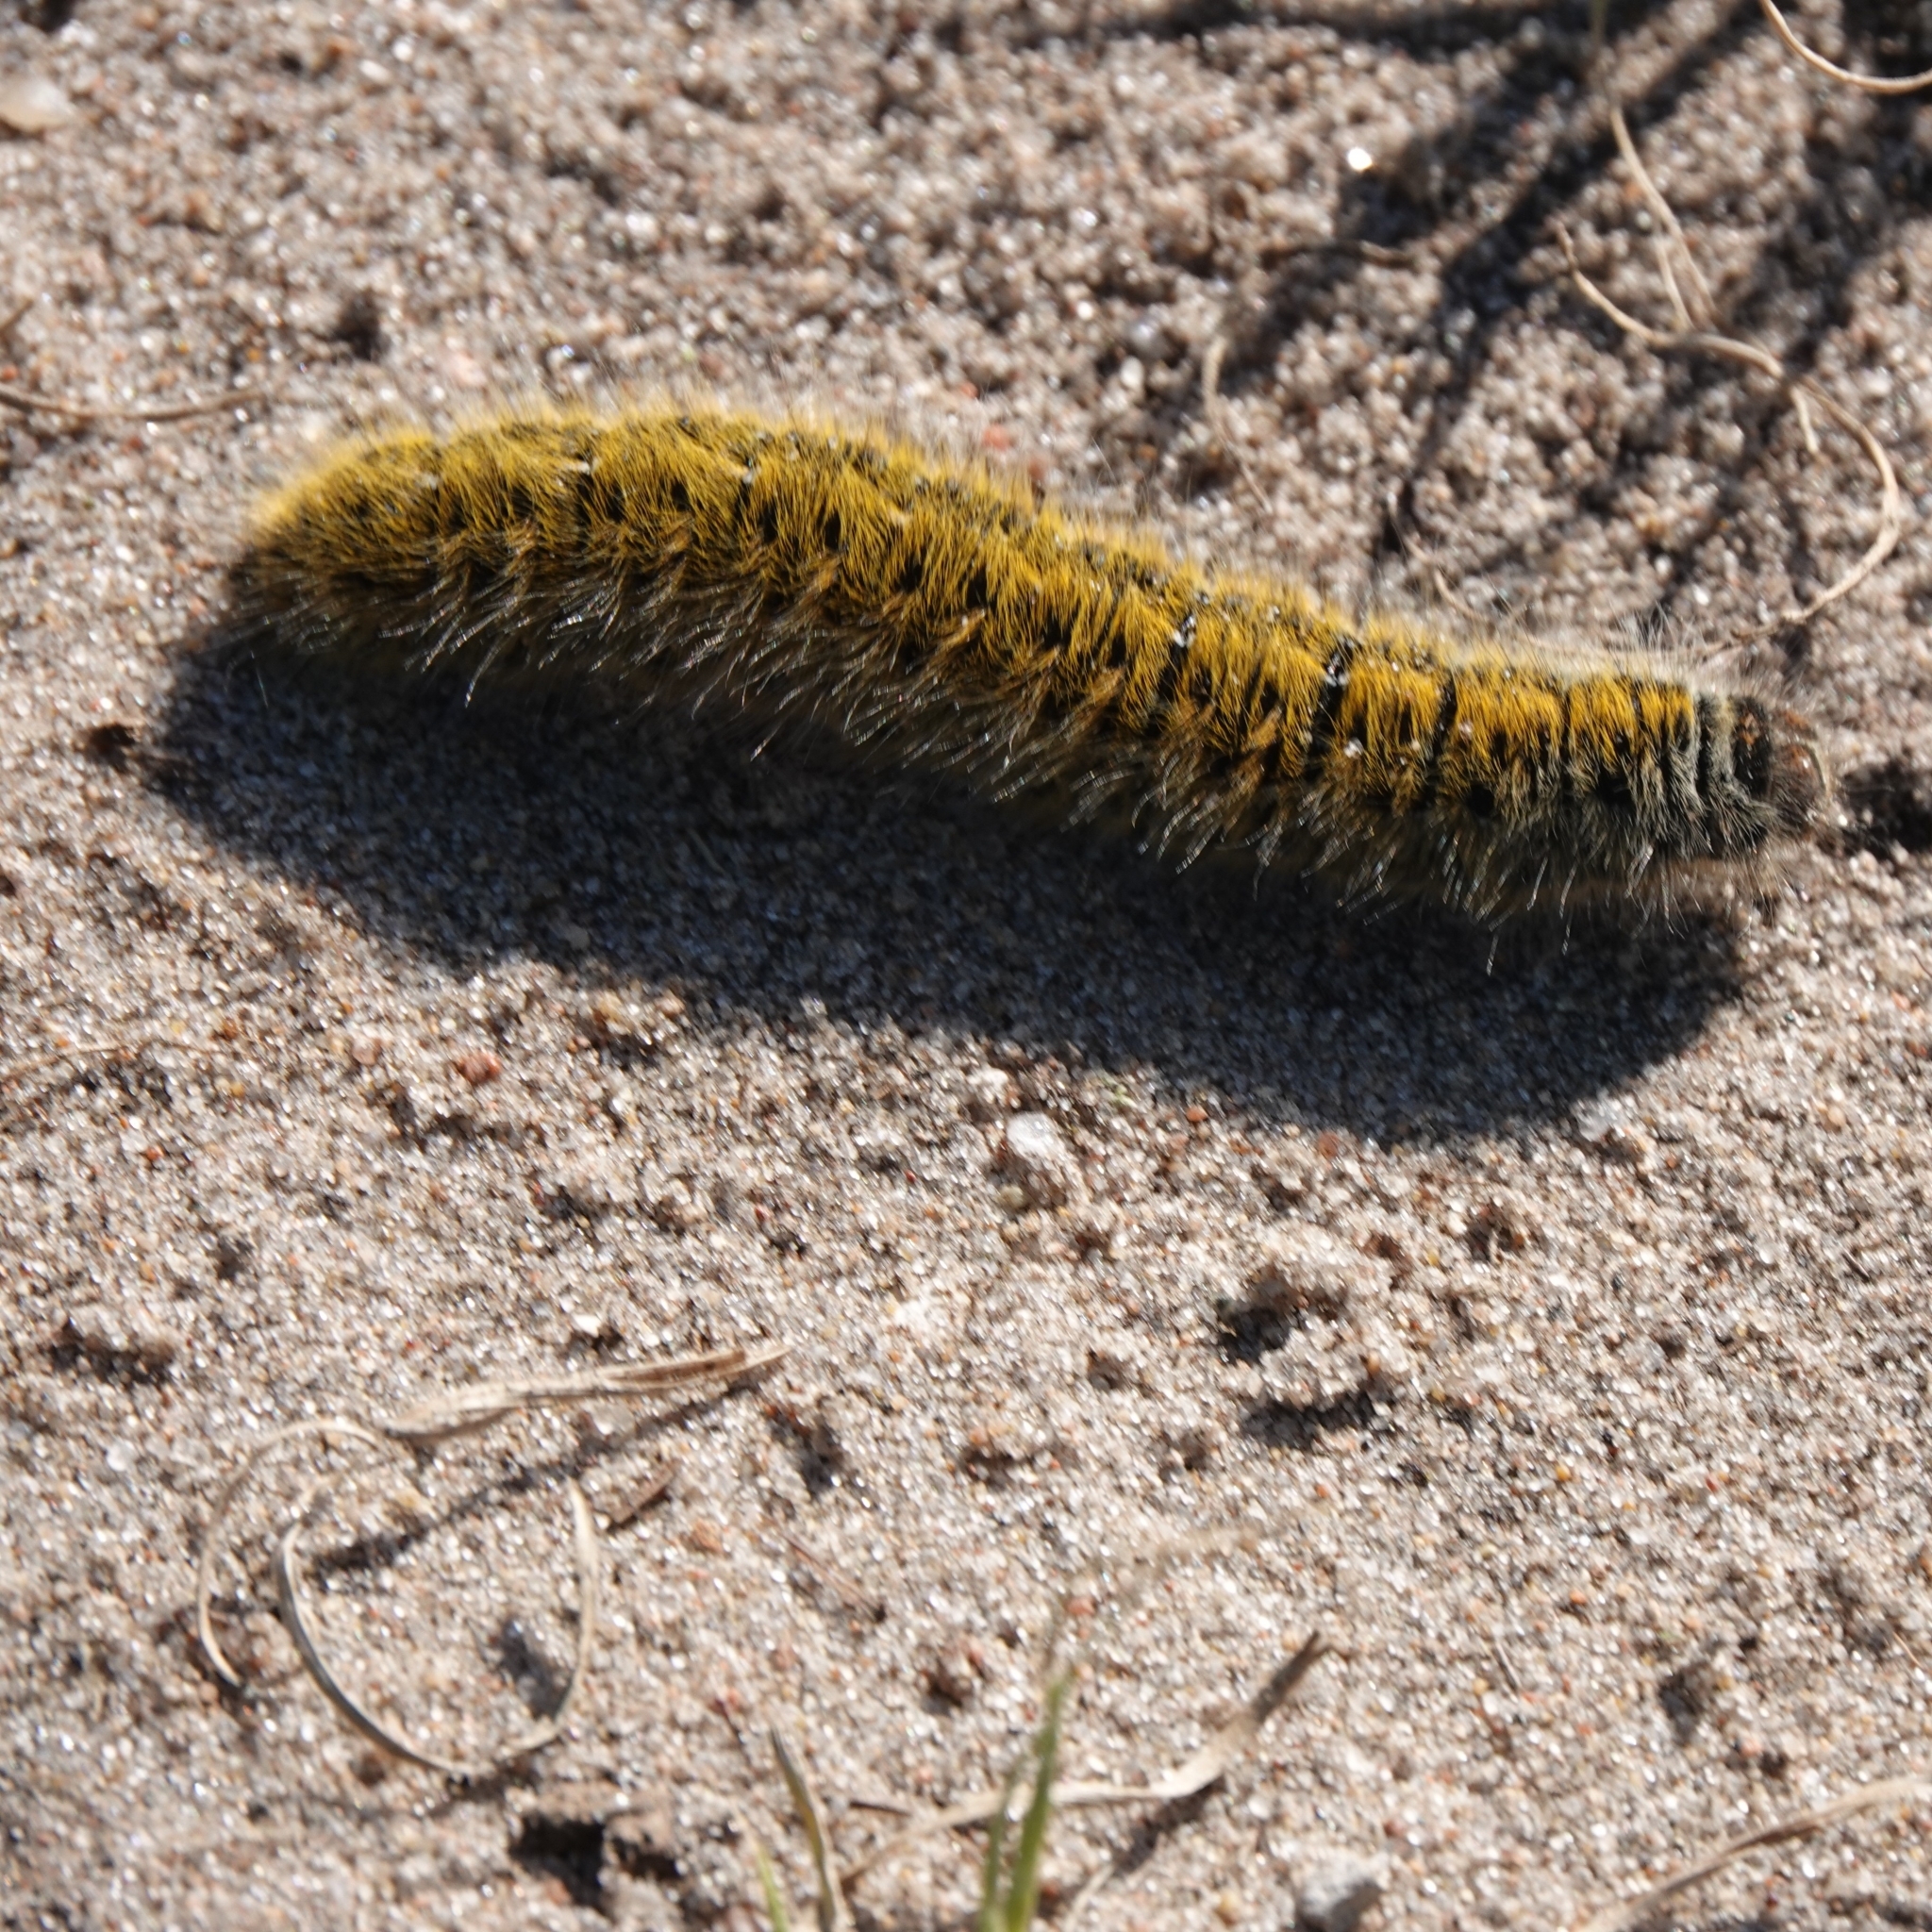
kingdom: Animalia
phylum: Arthropoda
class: Insecta
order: Lepidoptera
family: Lasiocampidae
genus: Lasiocampa
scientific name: Lasiocampa trifolii
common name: Grass eggar
